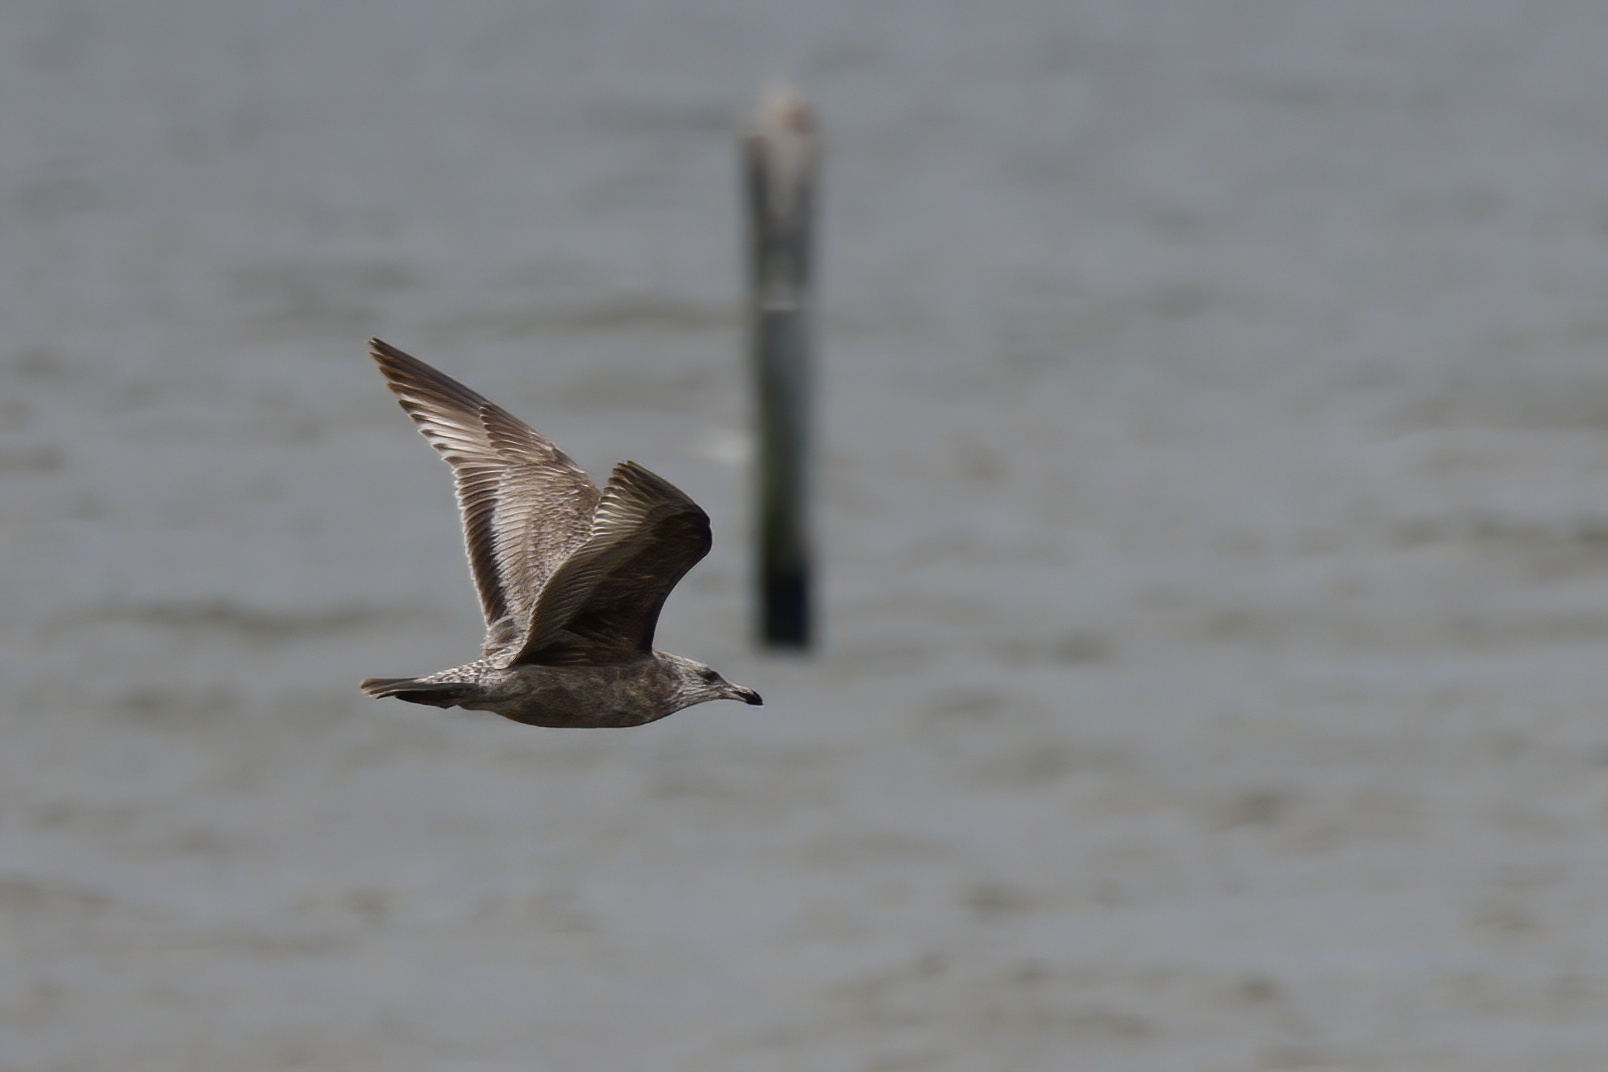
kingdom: Animalia
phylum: Chordata
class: Aves
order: Charadriiformes
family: Laridae
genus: Larus
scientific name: Larus argentatus
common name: Herring gull
